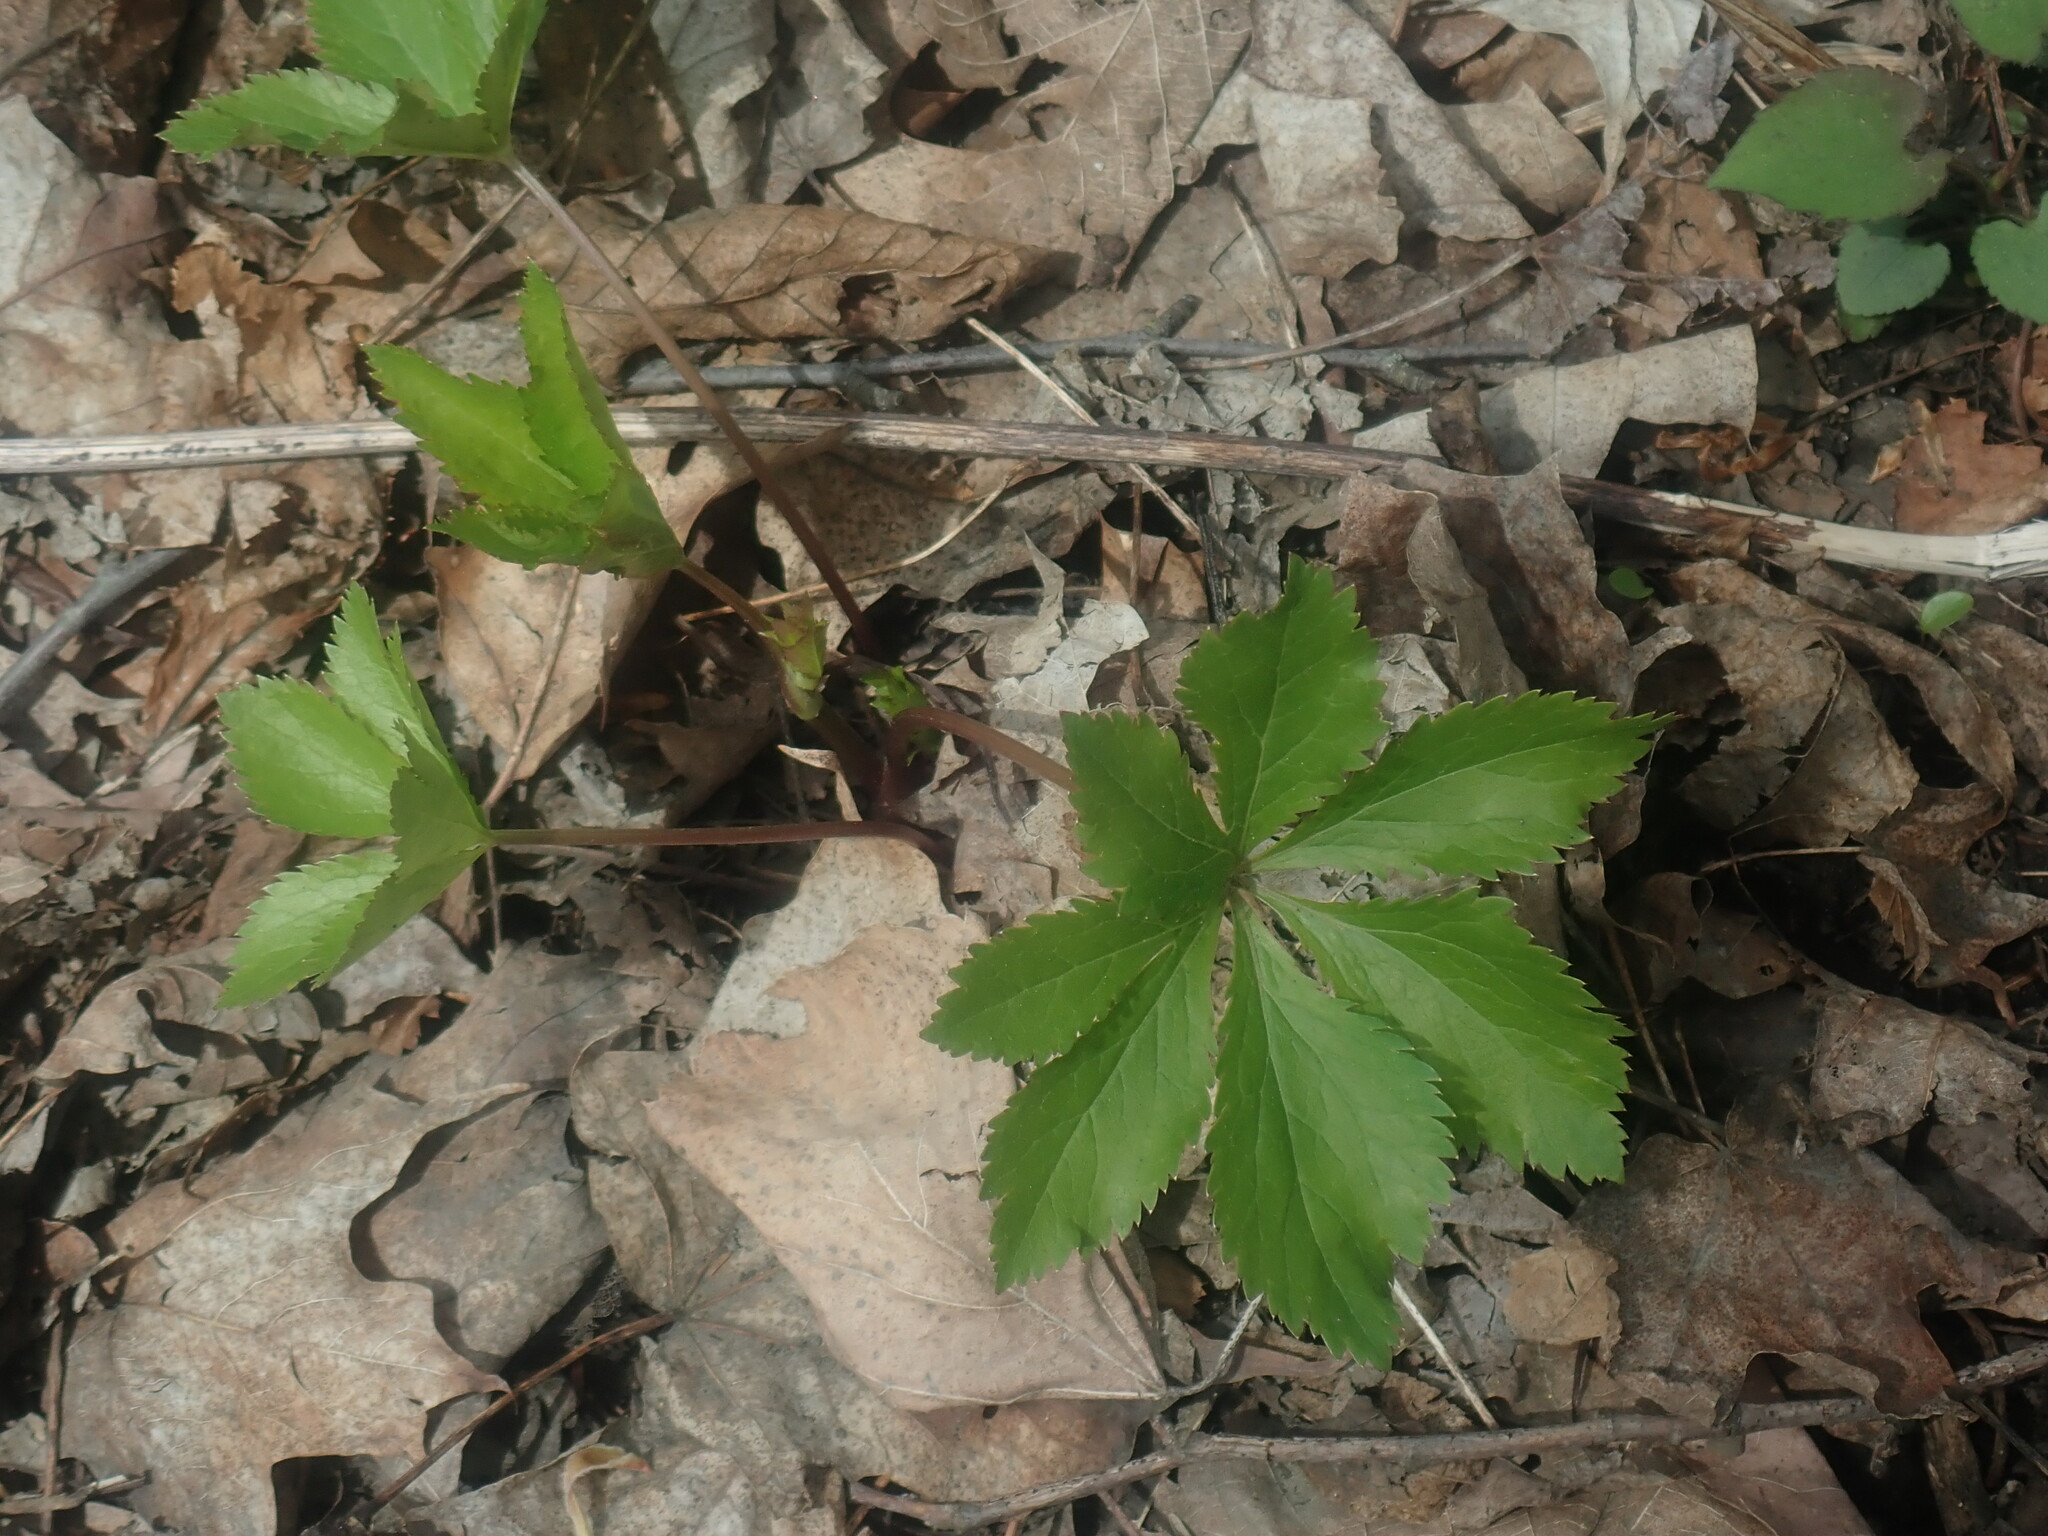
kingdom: Plantae
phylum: Tracheophyta
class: Magnoliopsida
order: Apiales
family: Apiaceae
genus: Sanicula
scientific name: Sanicula
